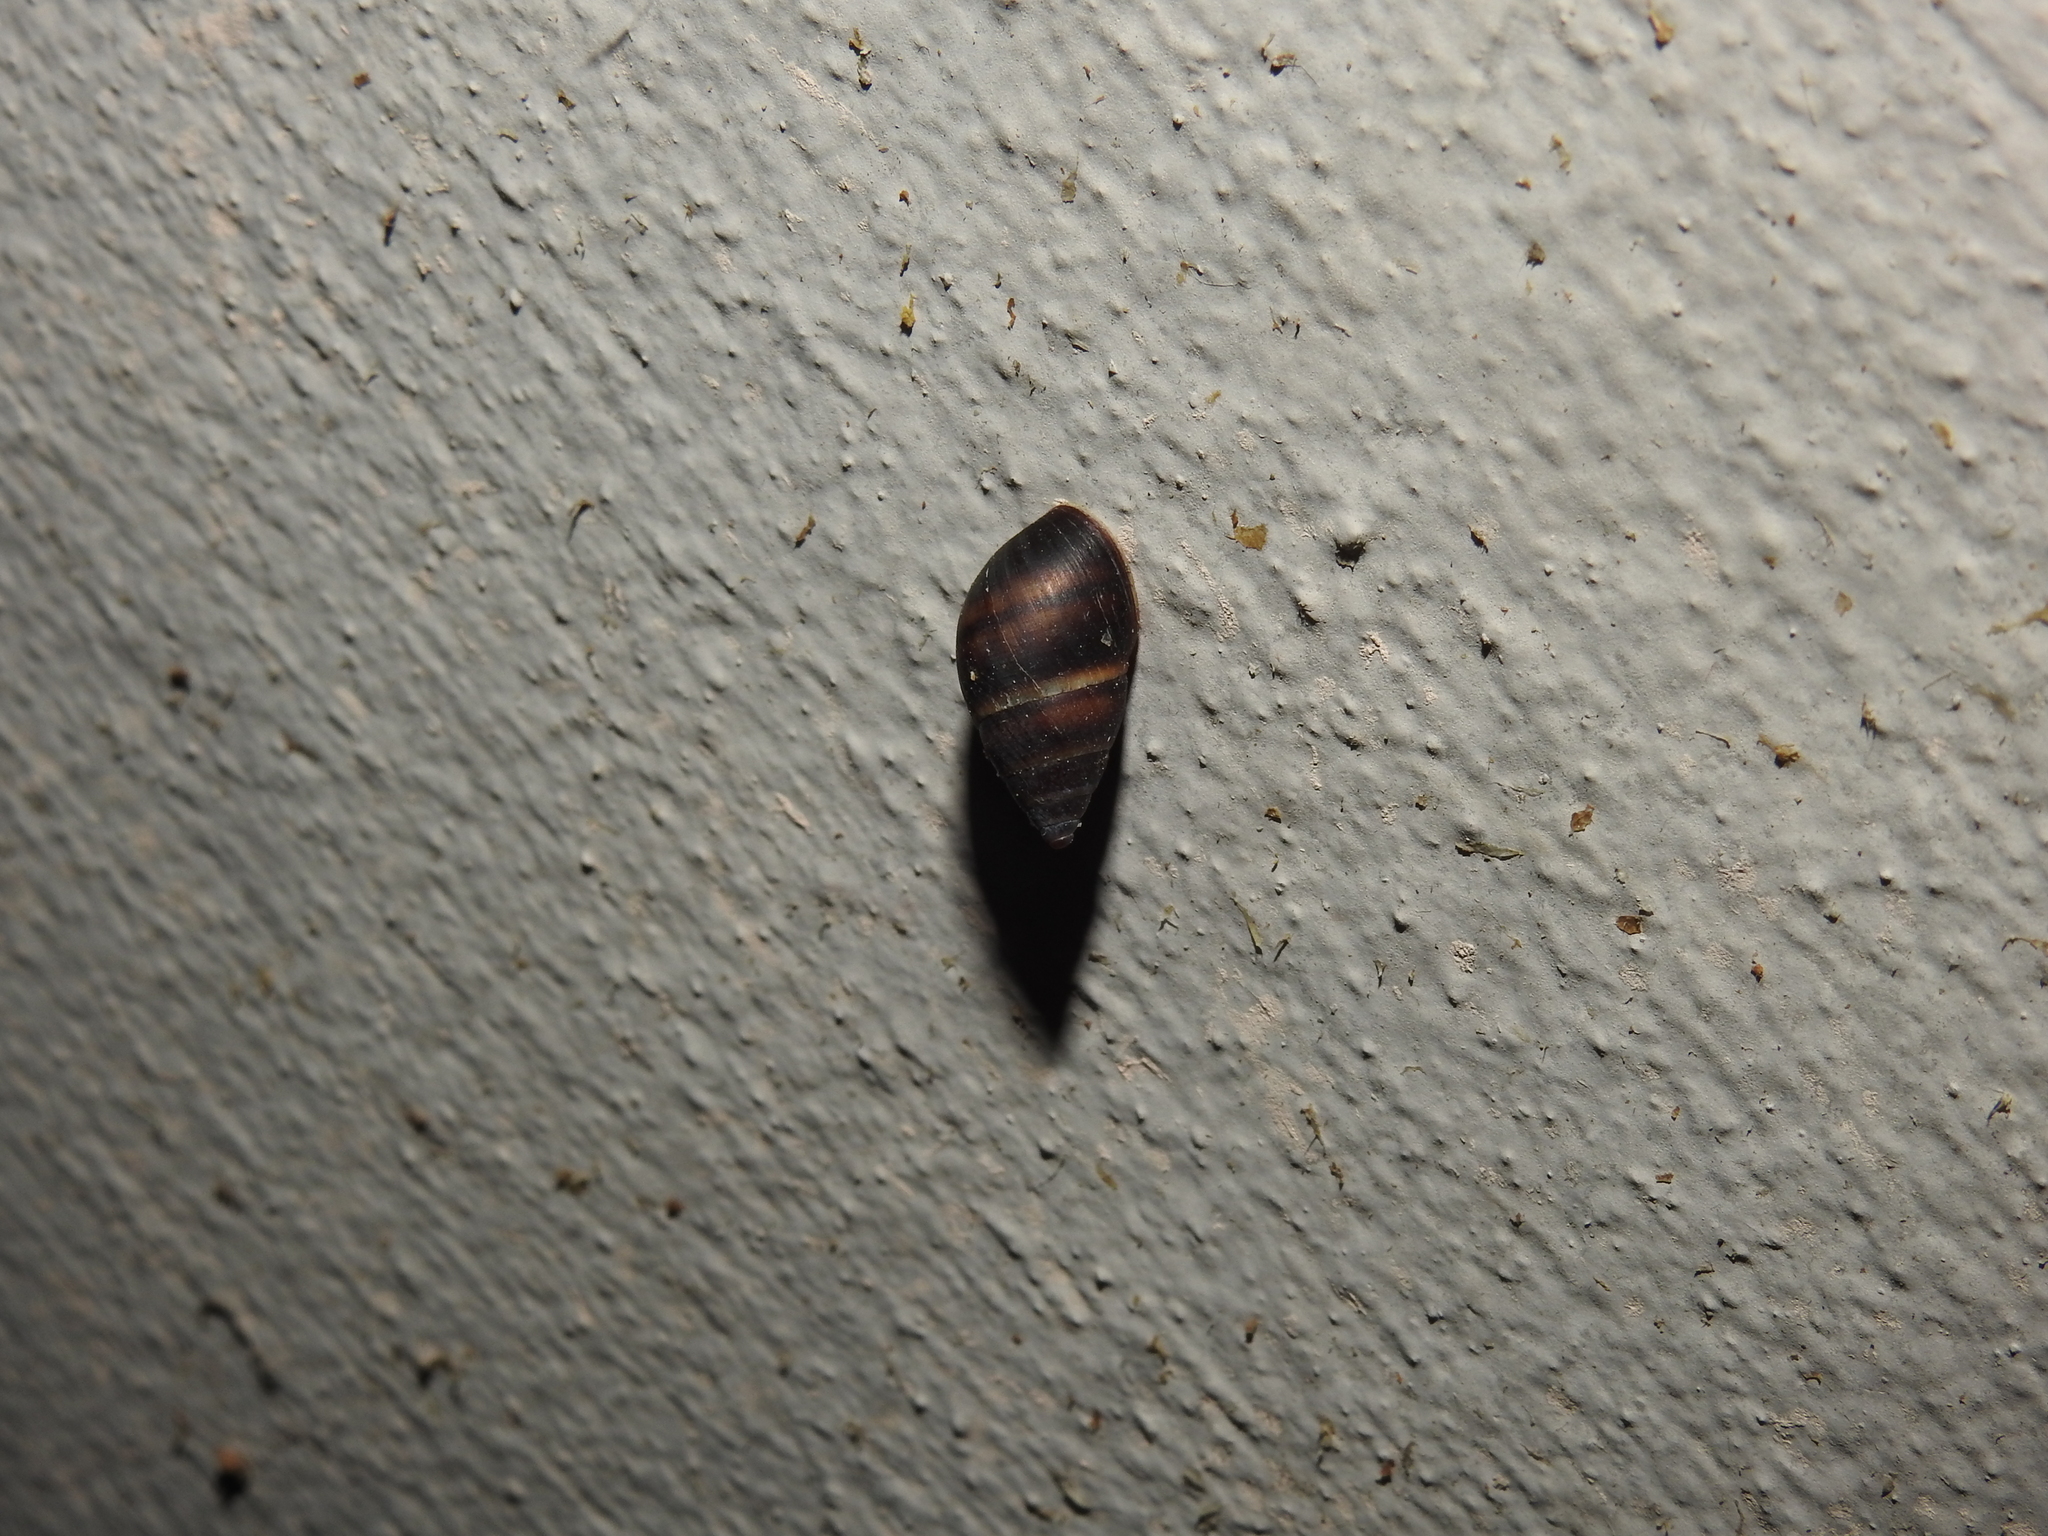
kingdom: Animalia
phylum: Mollusca
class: Gastropoda
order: Stylommatophora
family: Bulimulidae
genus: Bulimulus
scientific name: Bulimulus guadalupensis
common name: West indian bulimulus
